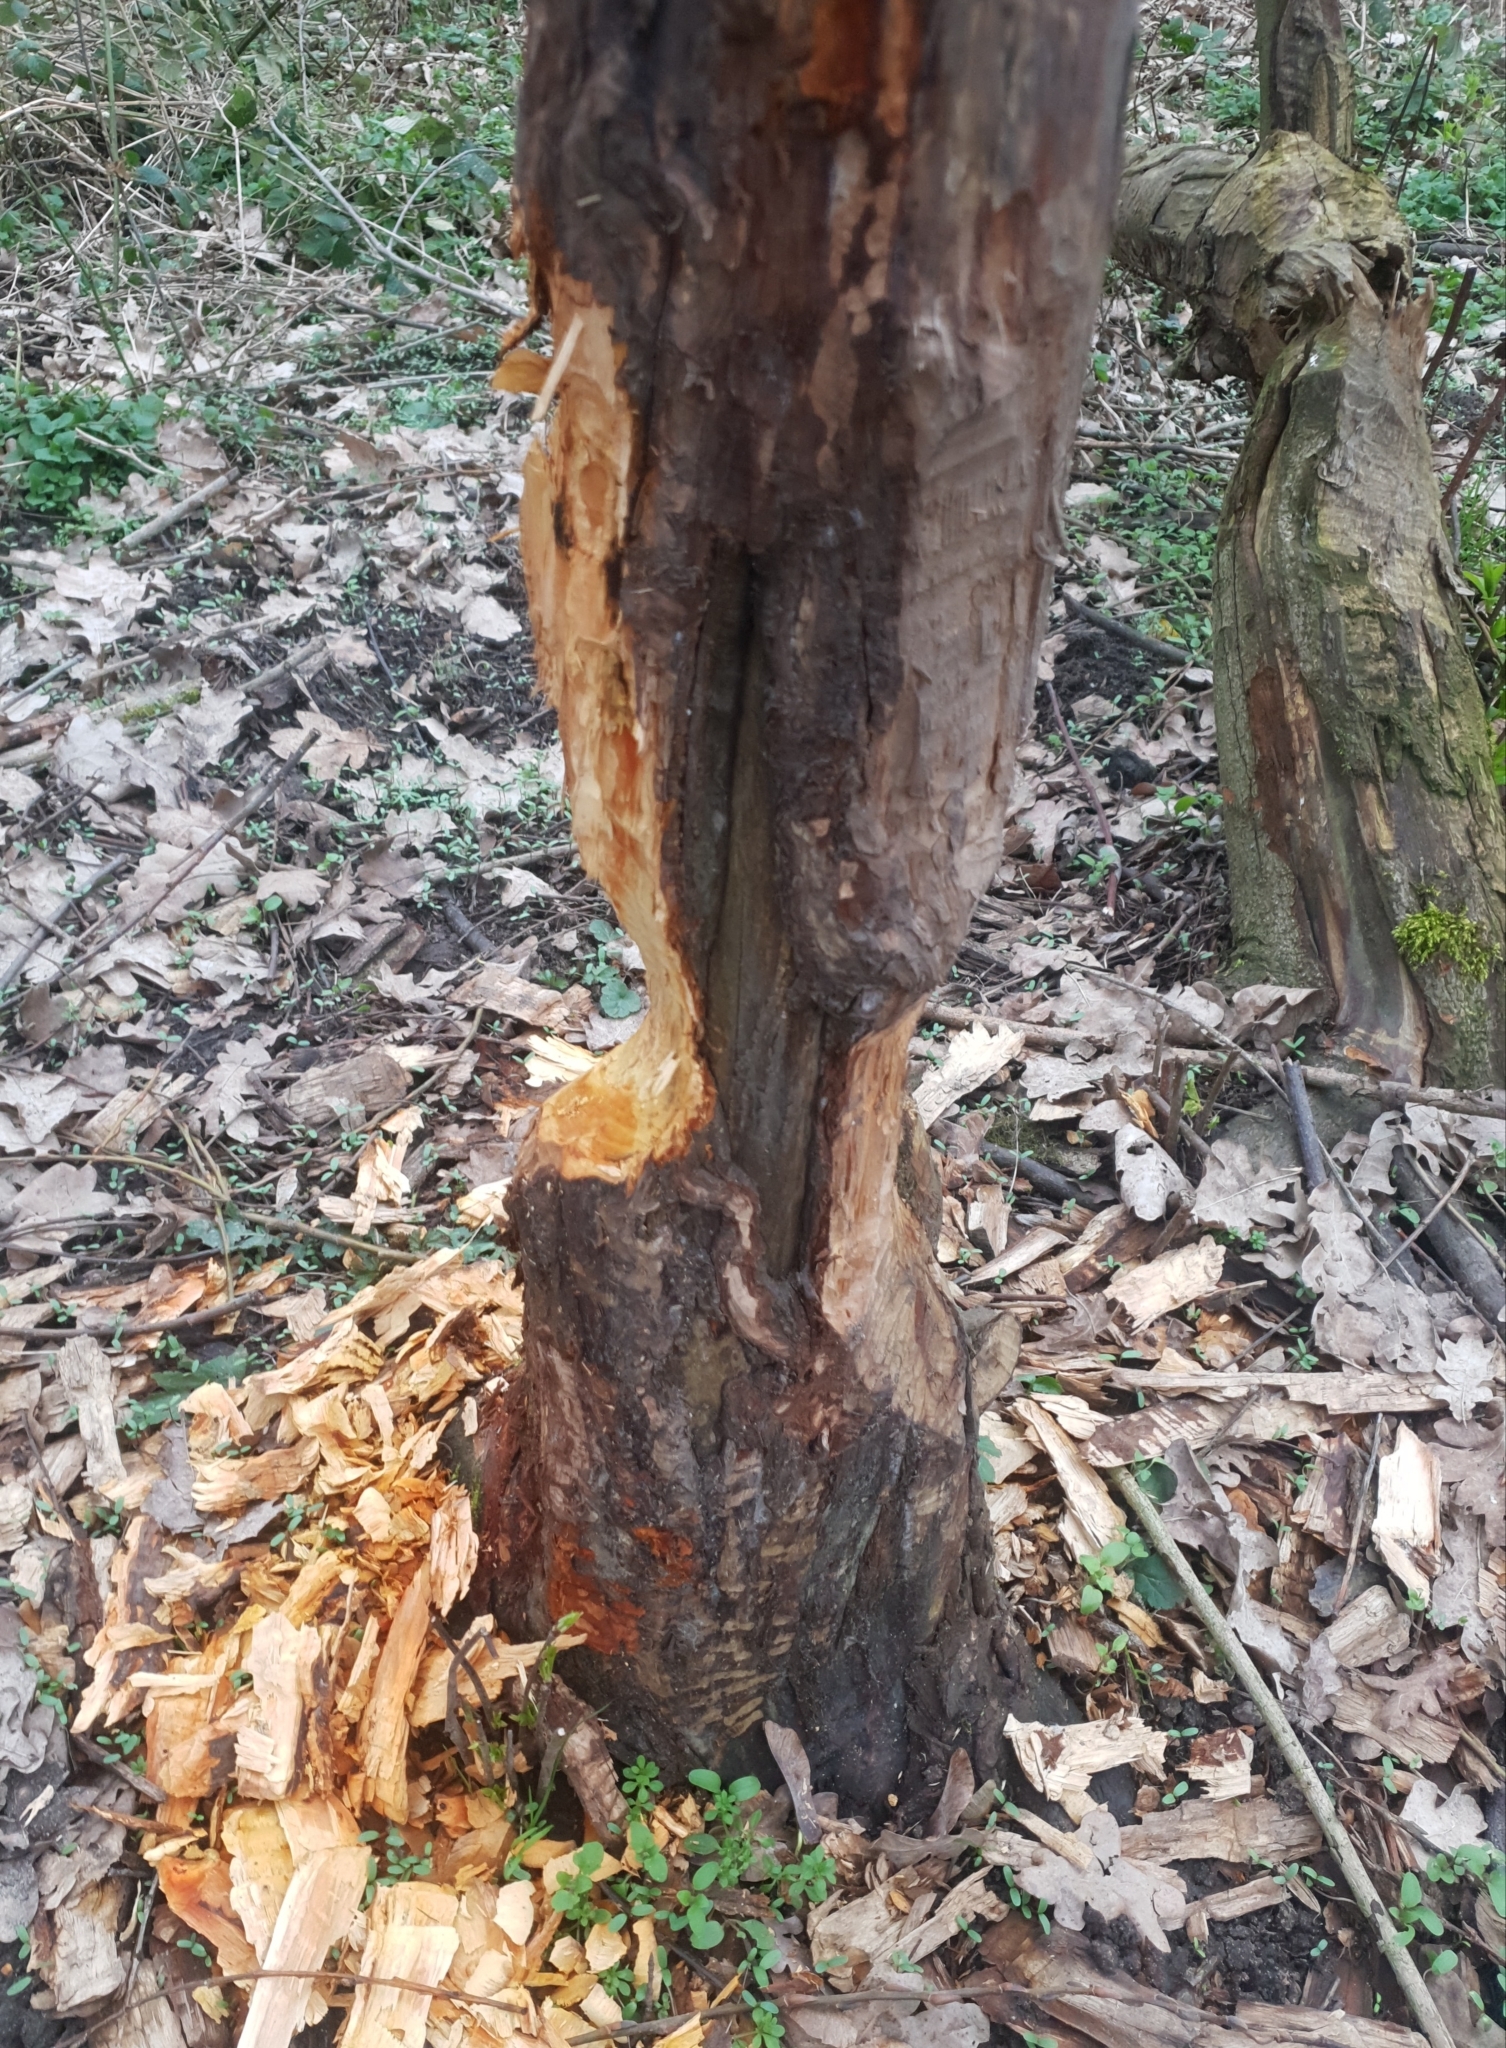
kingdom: Animalia
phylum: Chordata
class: Mammalia
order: Rodentia
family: Castoridae
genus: Castor
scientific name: Castor fiber
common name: Eurasian beaver
